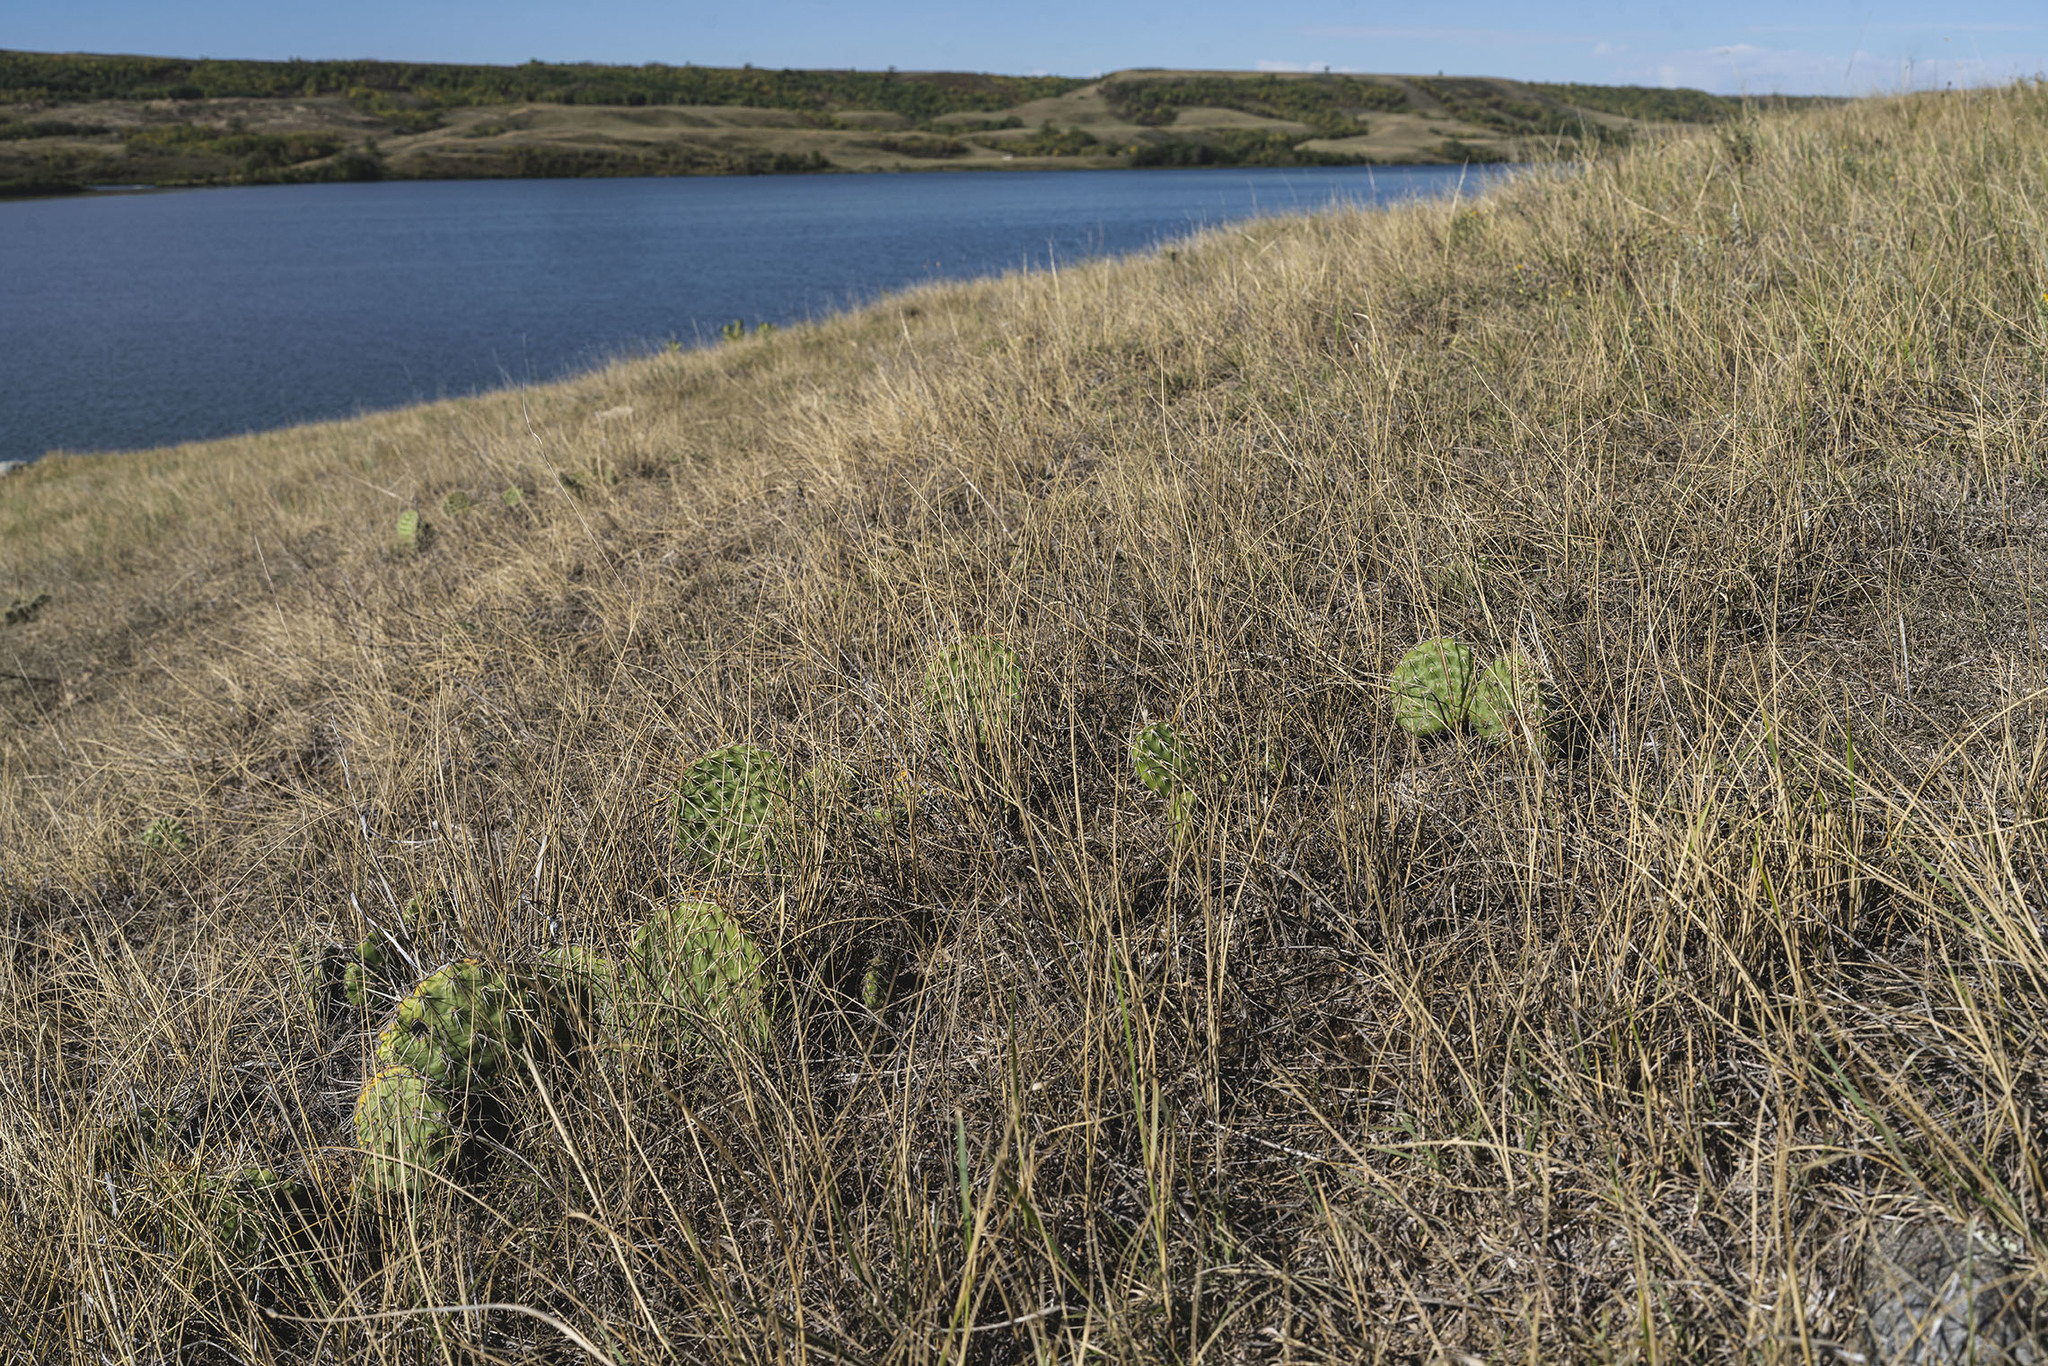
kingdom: Plantae
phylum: Tracheophyta
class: Magnoliopsida
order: Caryophyllales
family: Cactaceae
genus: Opuntia
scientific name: Opuntia polyacantha
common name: Plains prickly-pear
